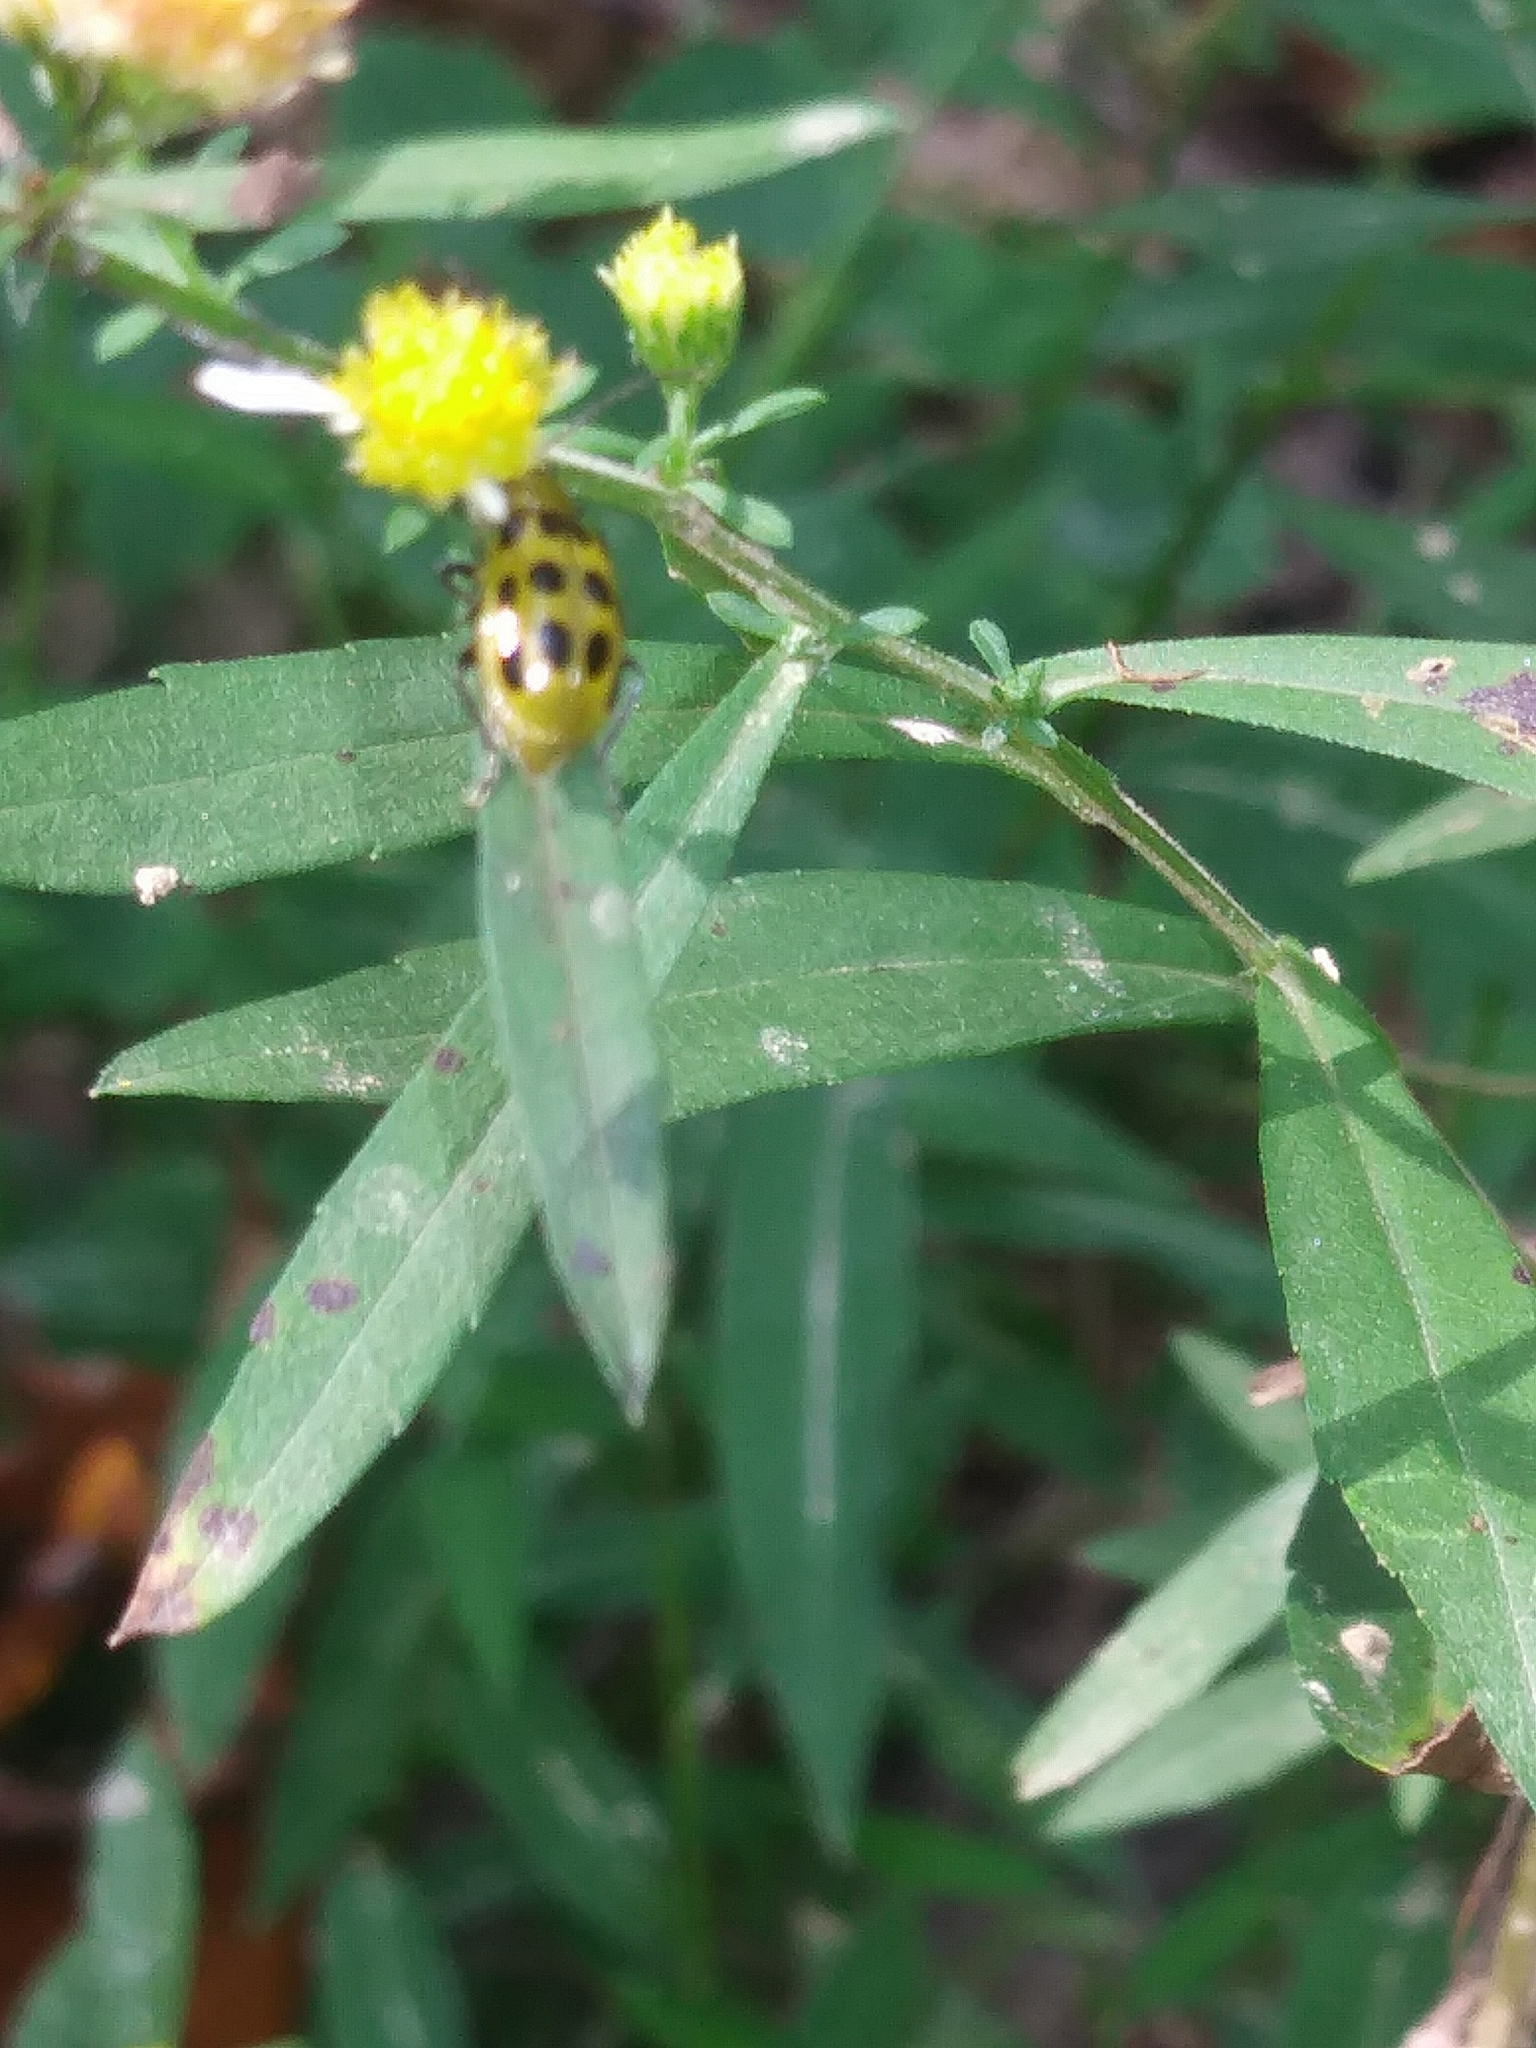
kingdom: Animalia
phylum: Arthropoda
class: Insecta
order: Coleoptera
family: Chrysomelidae
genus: Diabrotica
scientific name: Diabrotica undecimpunctata
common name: Spotted cucumber beetle
